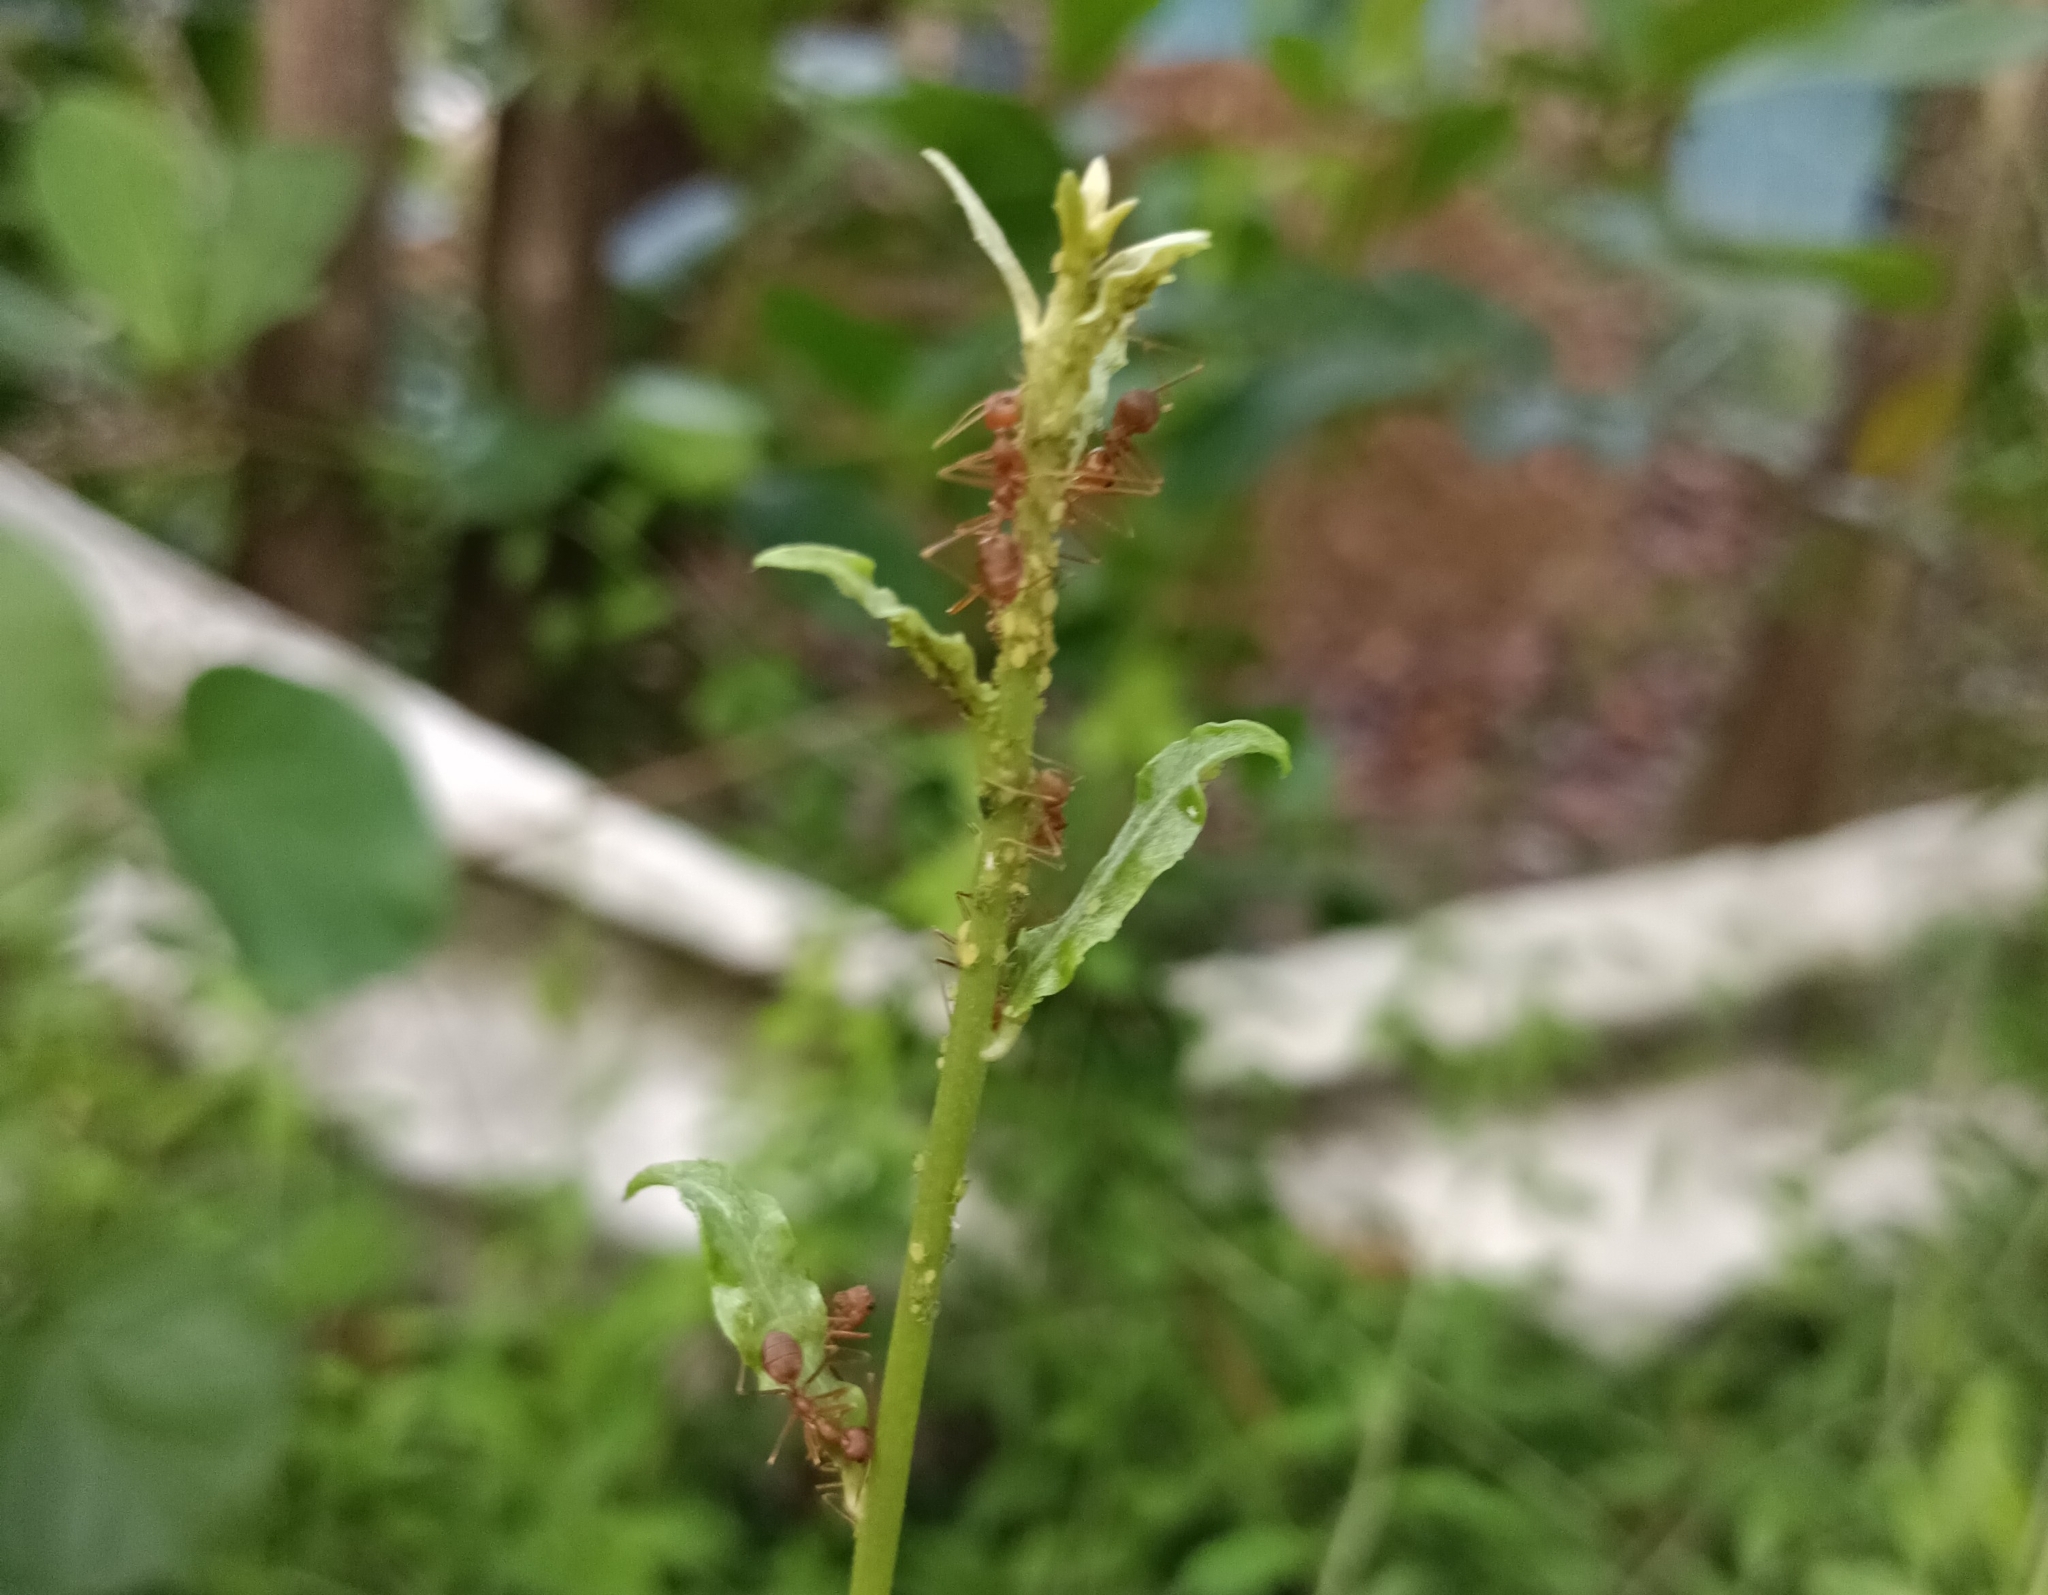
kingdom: Animalia
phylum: Arthropoda
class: Insecta
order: Hymenoptera
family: Formicidae
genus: Oecophylla
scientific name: Oecophylla smaragdina
